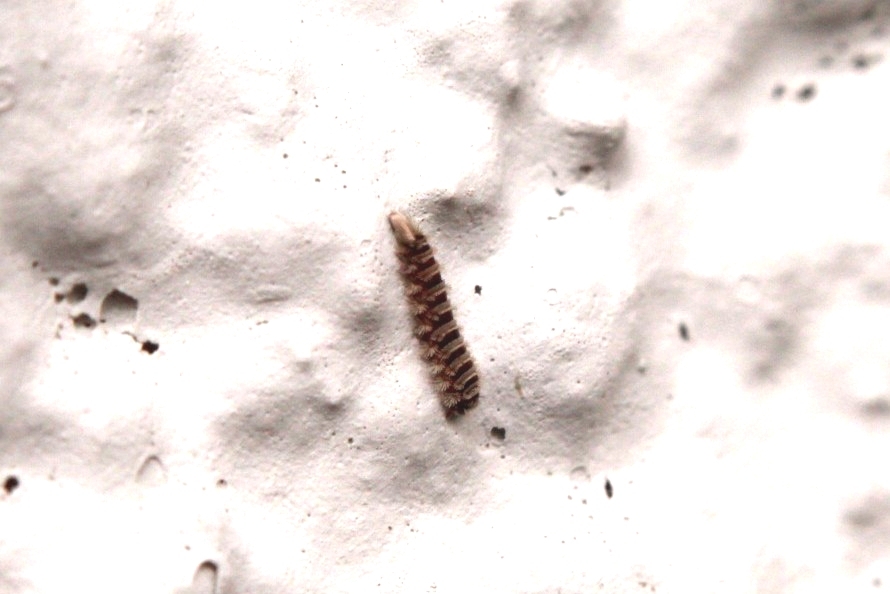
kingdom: Animalia
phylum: Arthropoda
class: Diplopoda
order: Polyxenida
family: Polyxenidae
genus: Polyxenus
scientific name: Polyxenus lagurus
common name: Bristly millipede
